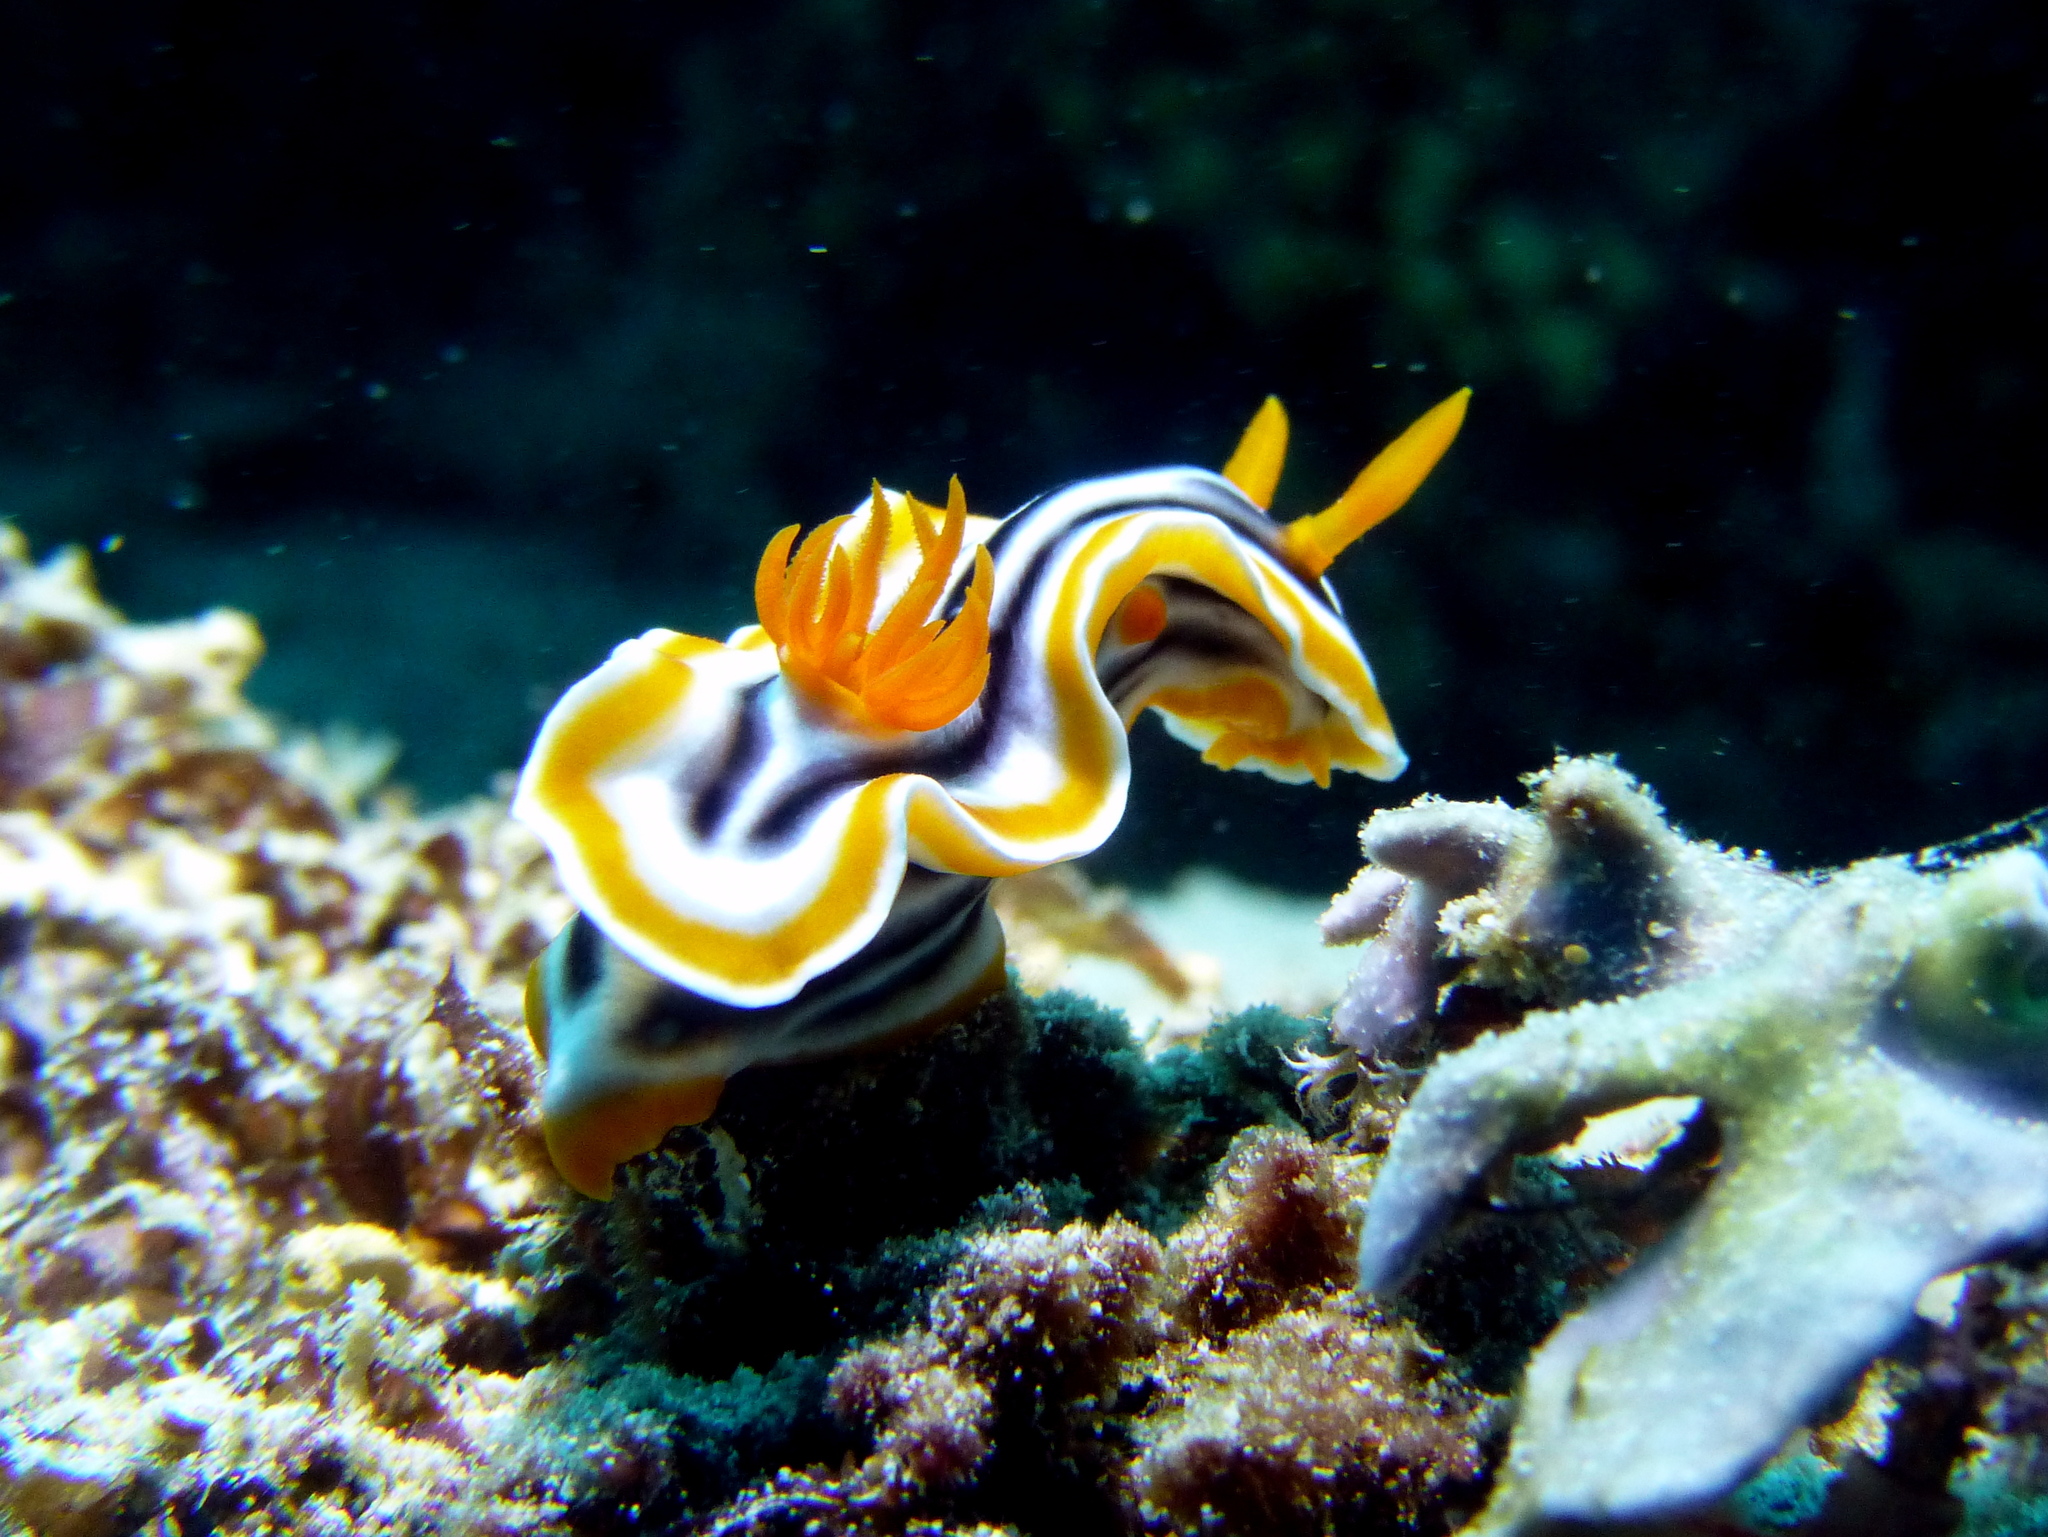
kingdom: Animalia
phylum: Mollusca
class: Gastropoda
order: Nudibranchia
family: Chromodorididae
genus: Chromodoris
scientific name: Chromodoris magnifica
